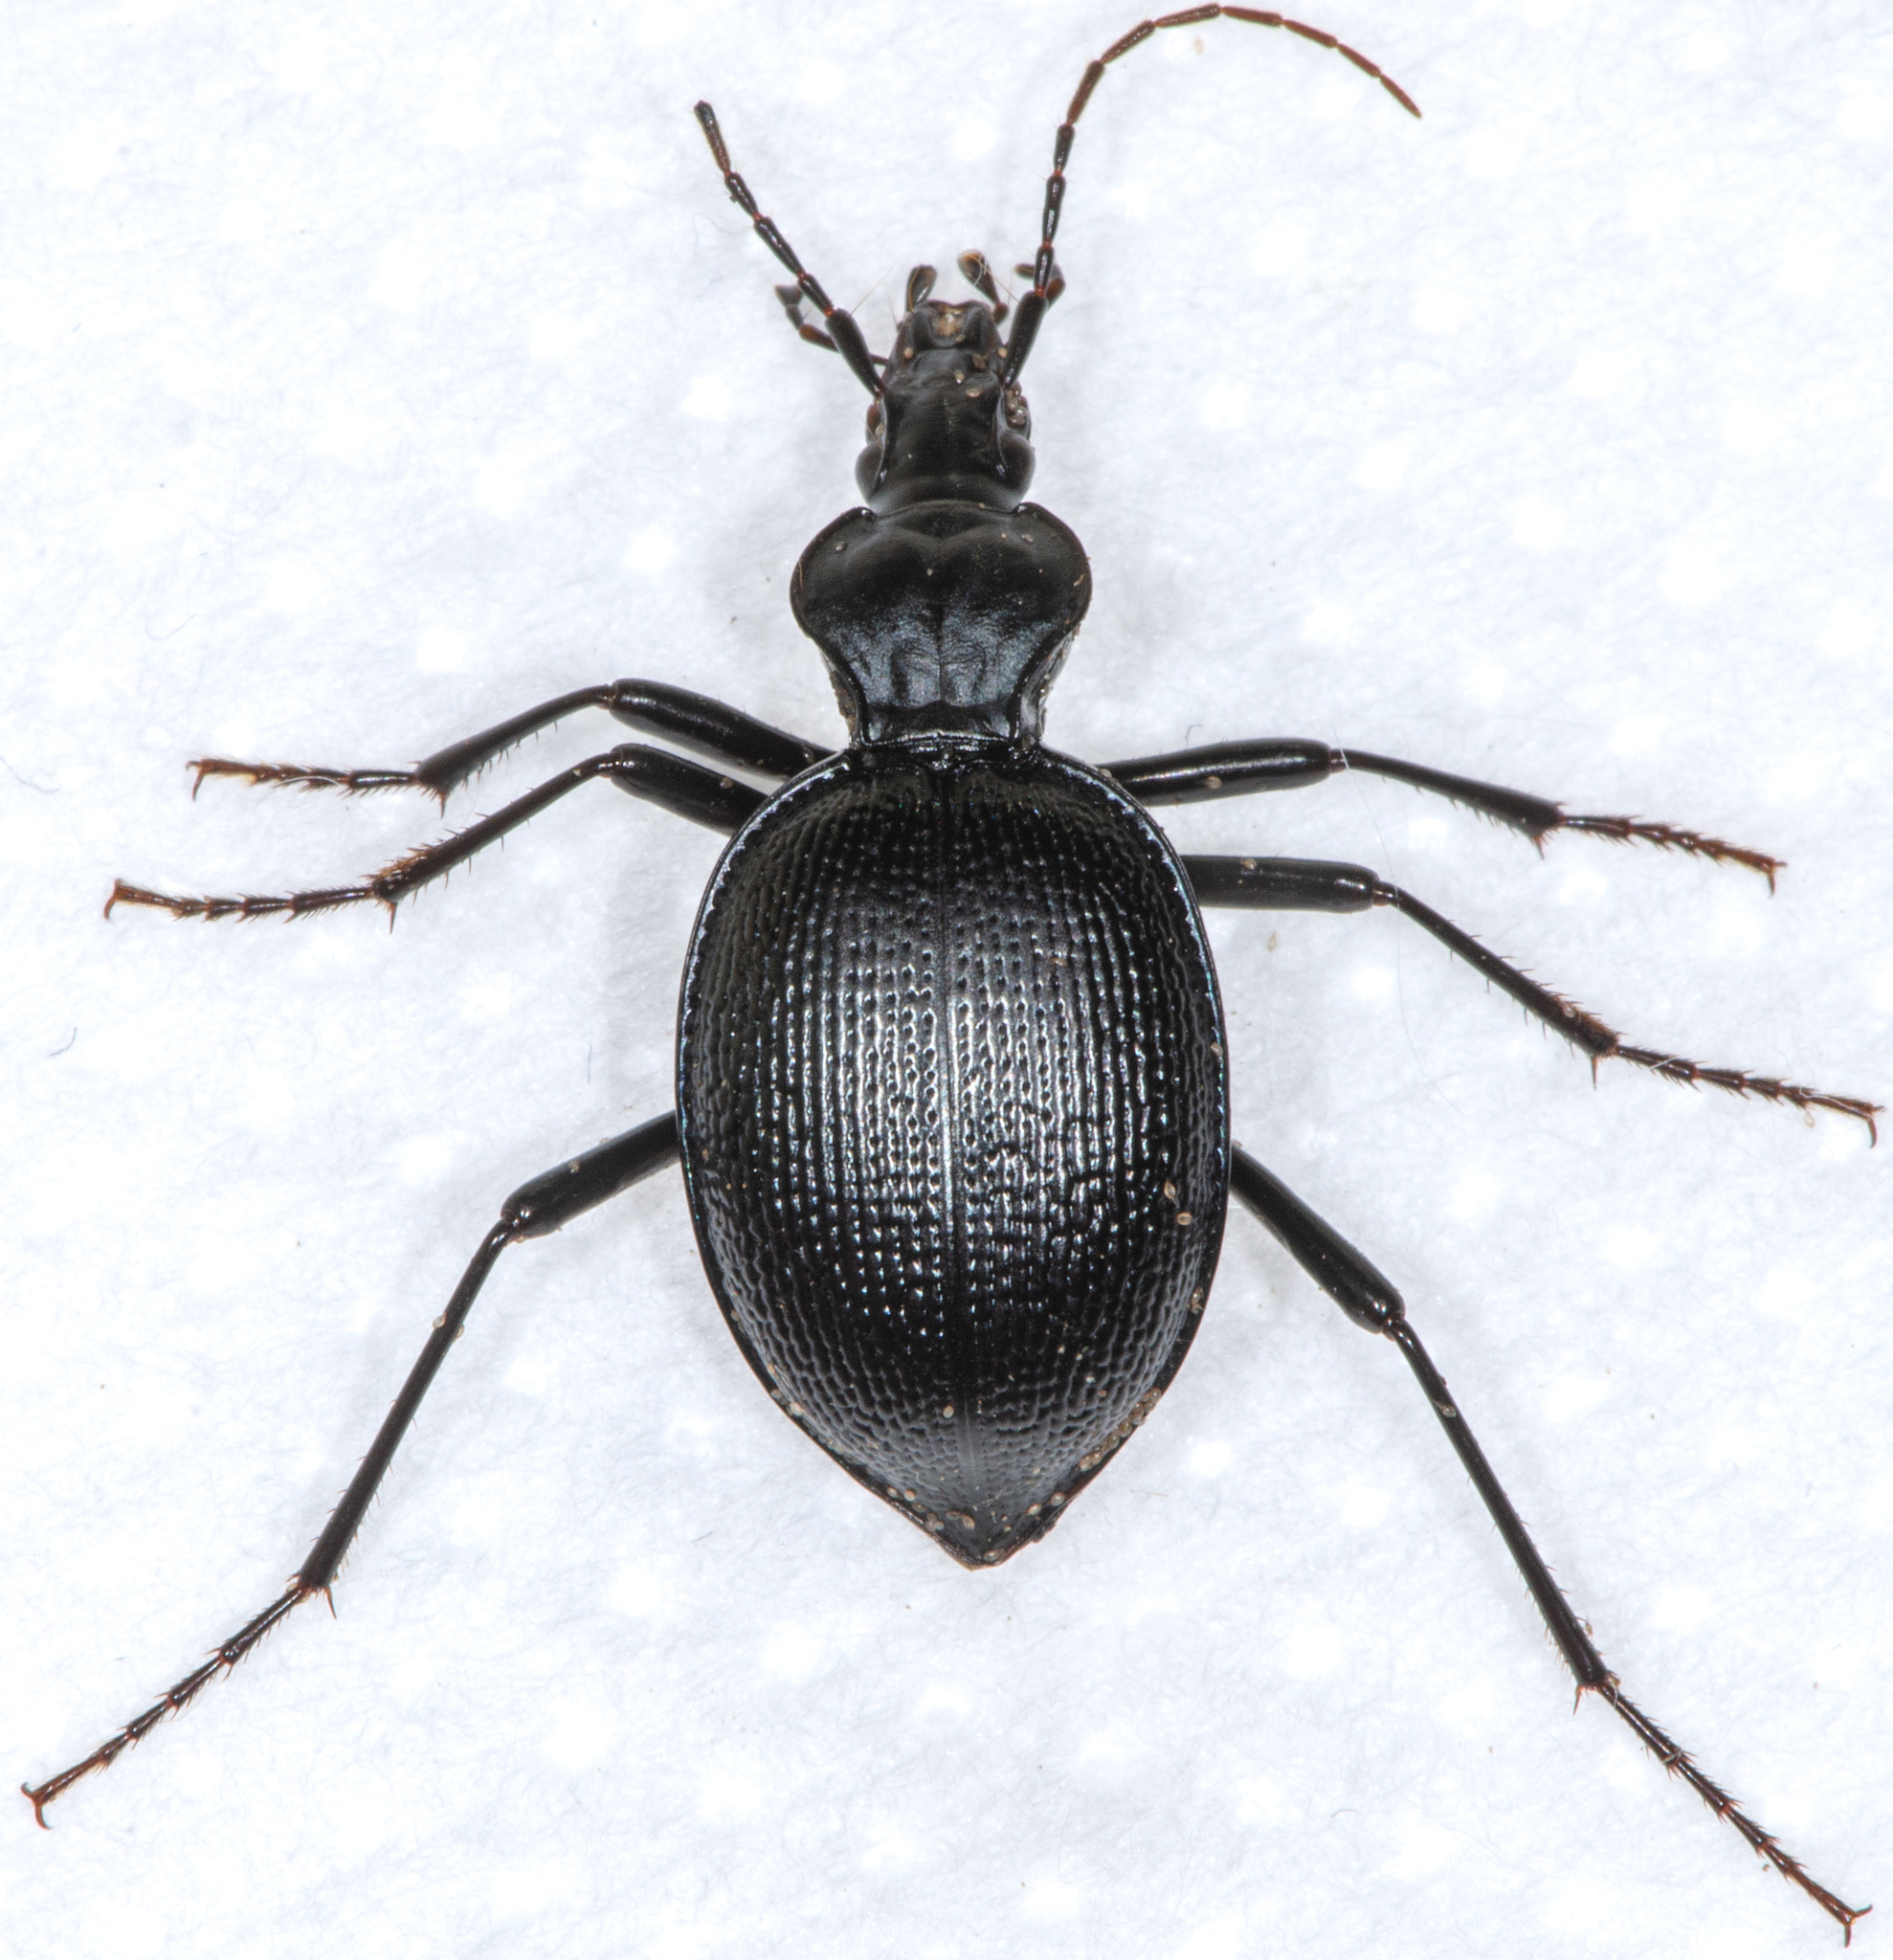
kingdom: Animalia
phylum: Arthropoda
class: Insecta
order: Coleoptera
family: Carabidae
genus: Scaphinotus
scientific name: Scaphinotus interruptus
